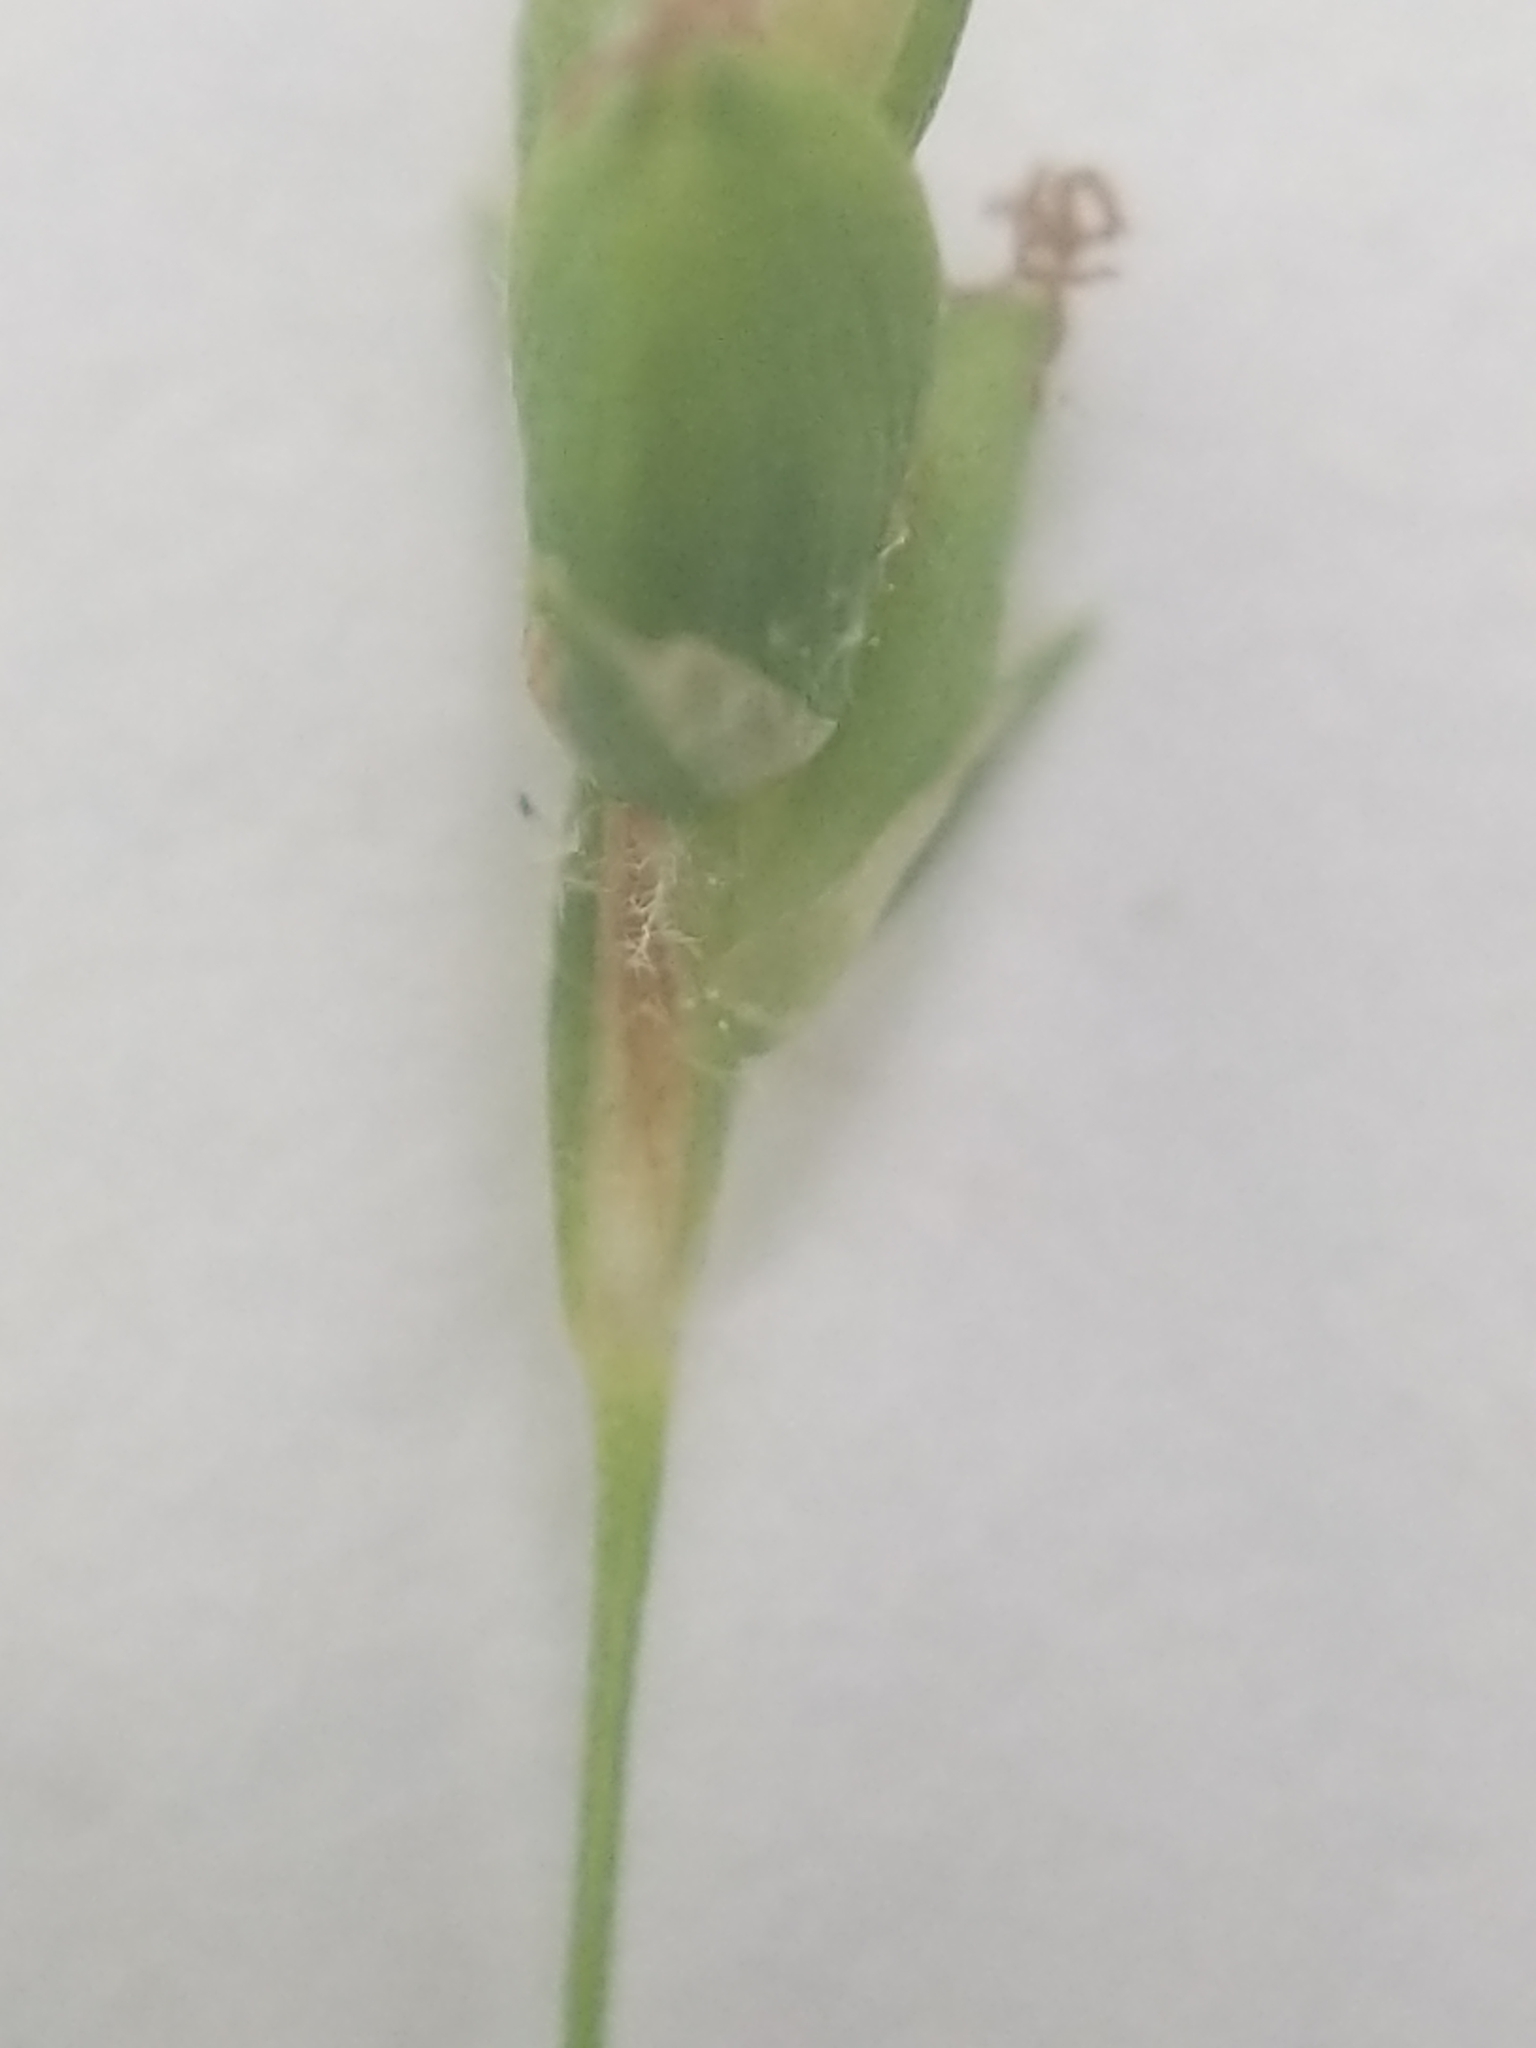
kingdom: Plantae
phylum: Tracheophyta
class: Liliopsida
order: Poales
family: Cyperaceae
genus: Carex
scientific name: Carex laxiculmis
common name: Spreading sedge
